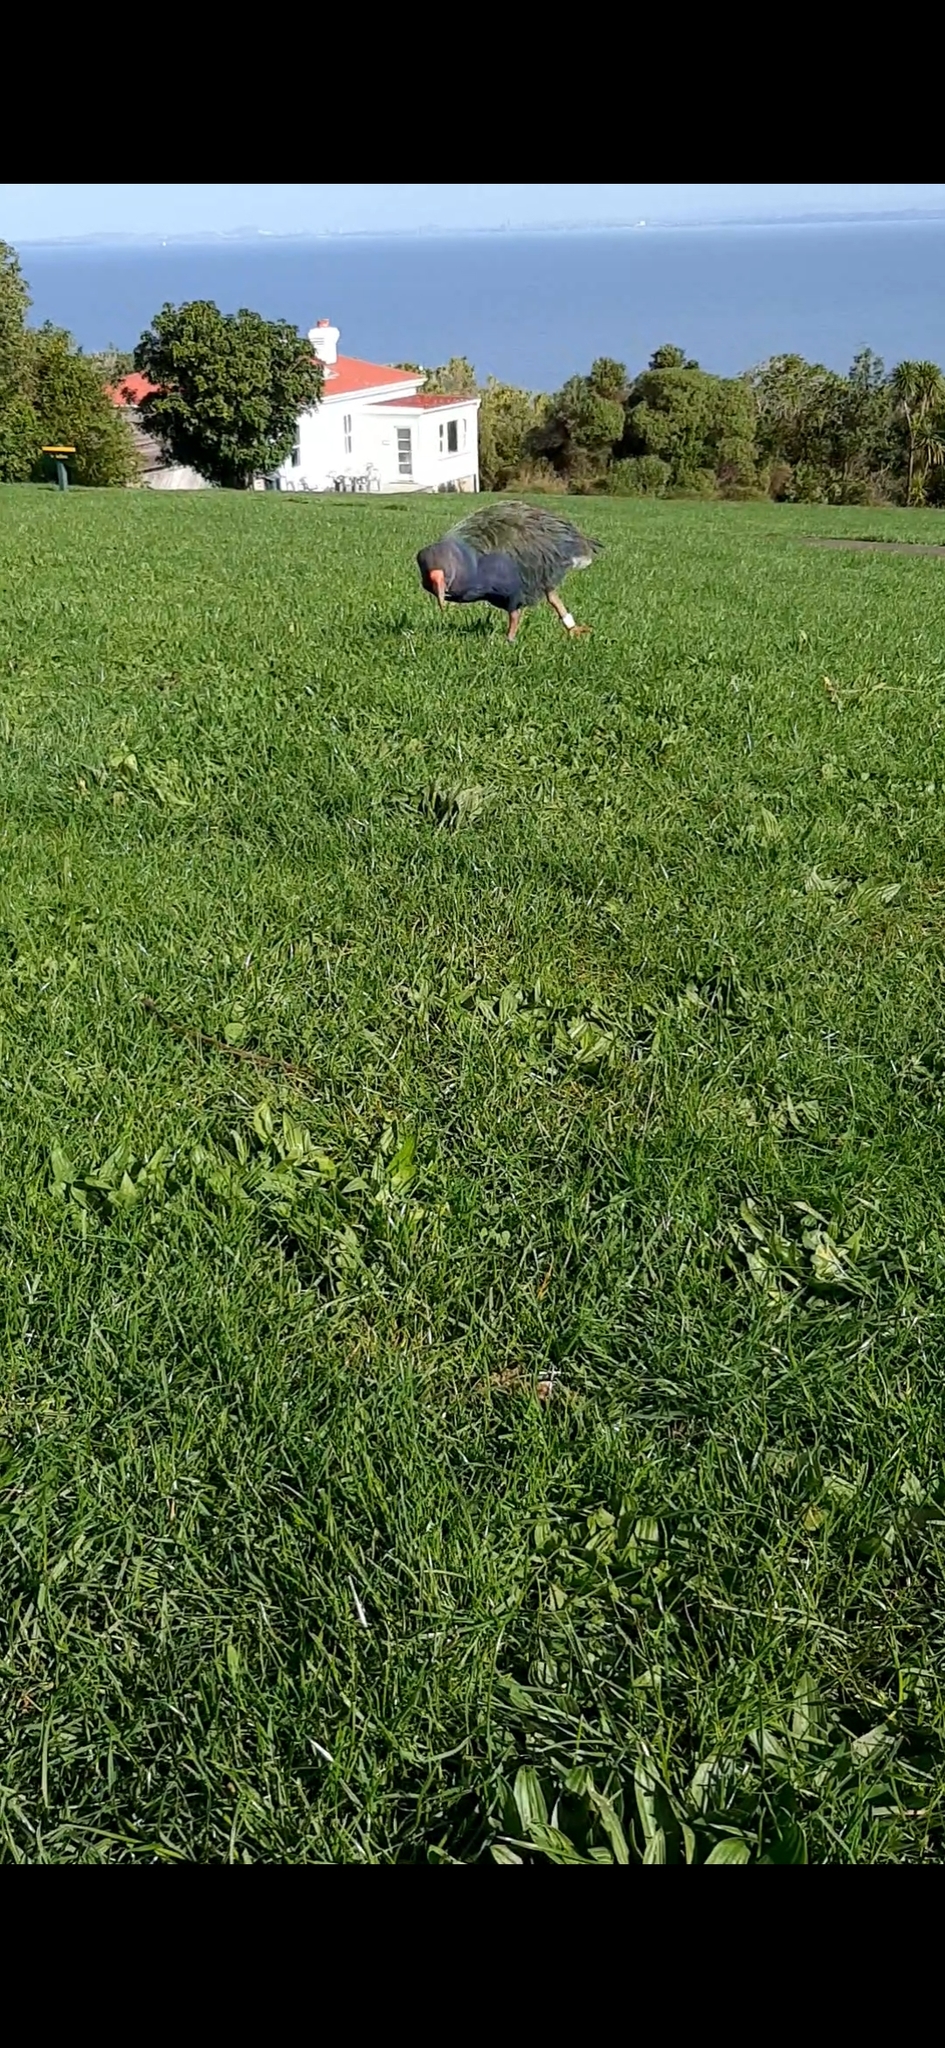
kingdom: Animalia
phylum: Chordata
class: Aves
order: Gruiformes
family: Rallidae
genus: Porphyrio
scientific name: Porphyrio hochstetteri
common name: South island takahe
